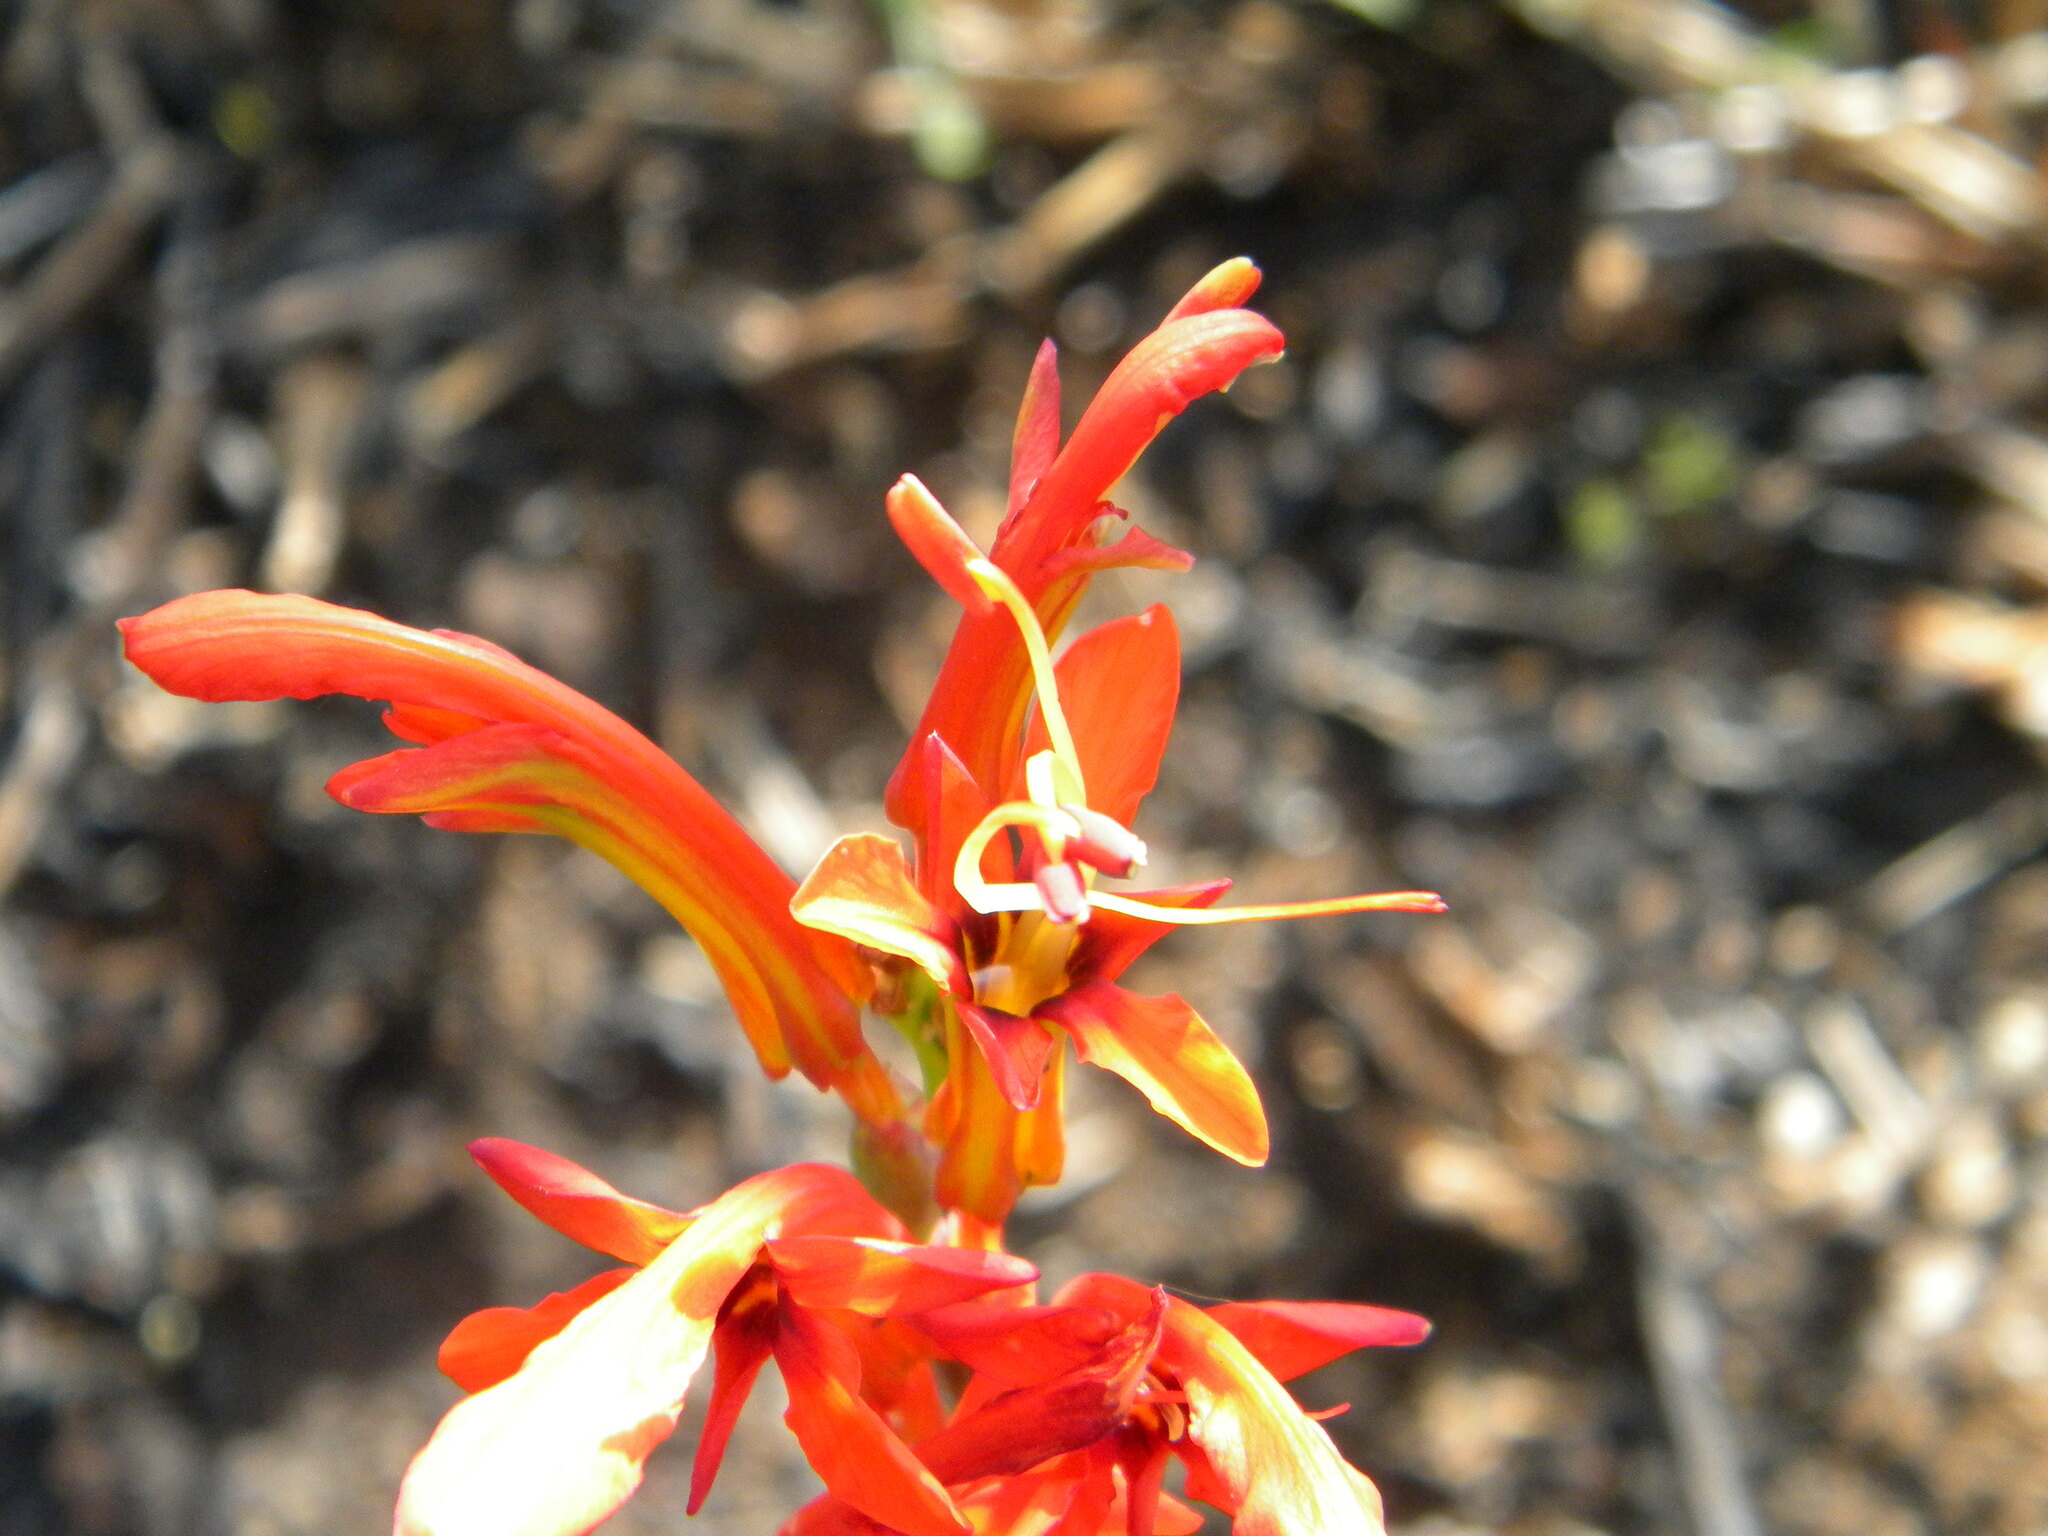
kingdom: Plantae
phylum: Tracheophyta
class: Liliopsida
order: Asparagales
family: Iridaceae
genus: Chasmanthe
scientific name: Chasmanthe aethiopica
